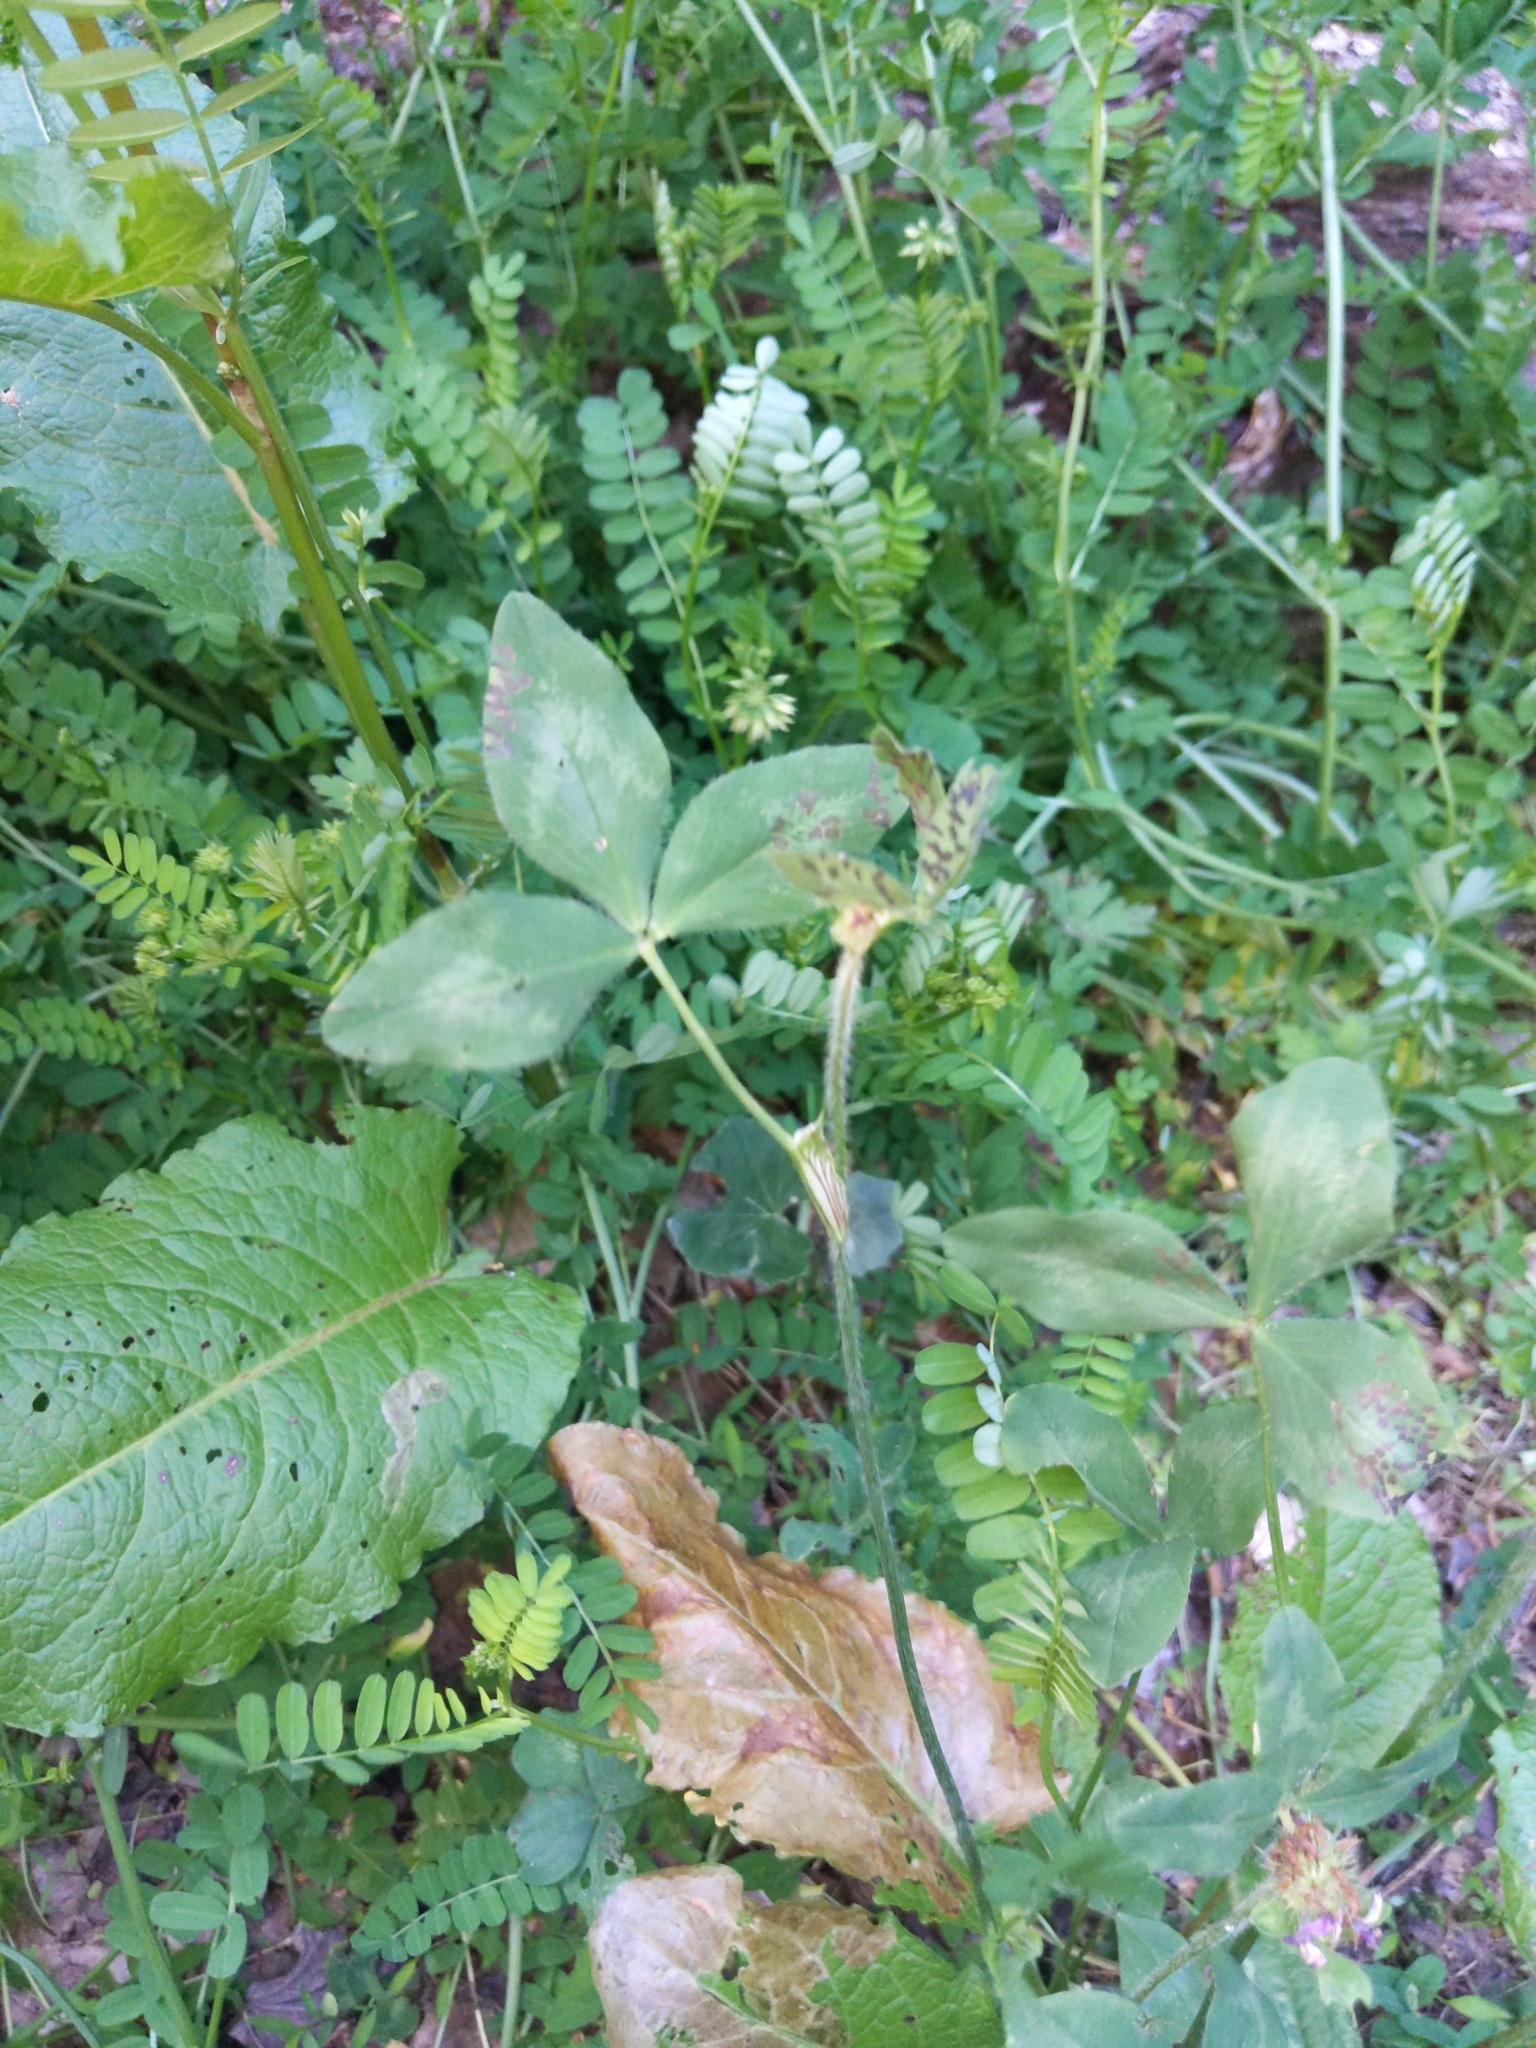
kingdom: Plantae
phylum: Tracheophyta
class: Magnoliopsida
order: Fabales
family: Fabaceae
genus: Trifolium
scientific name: Trifolium pratense
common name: Red clover
